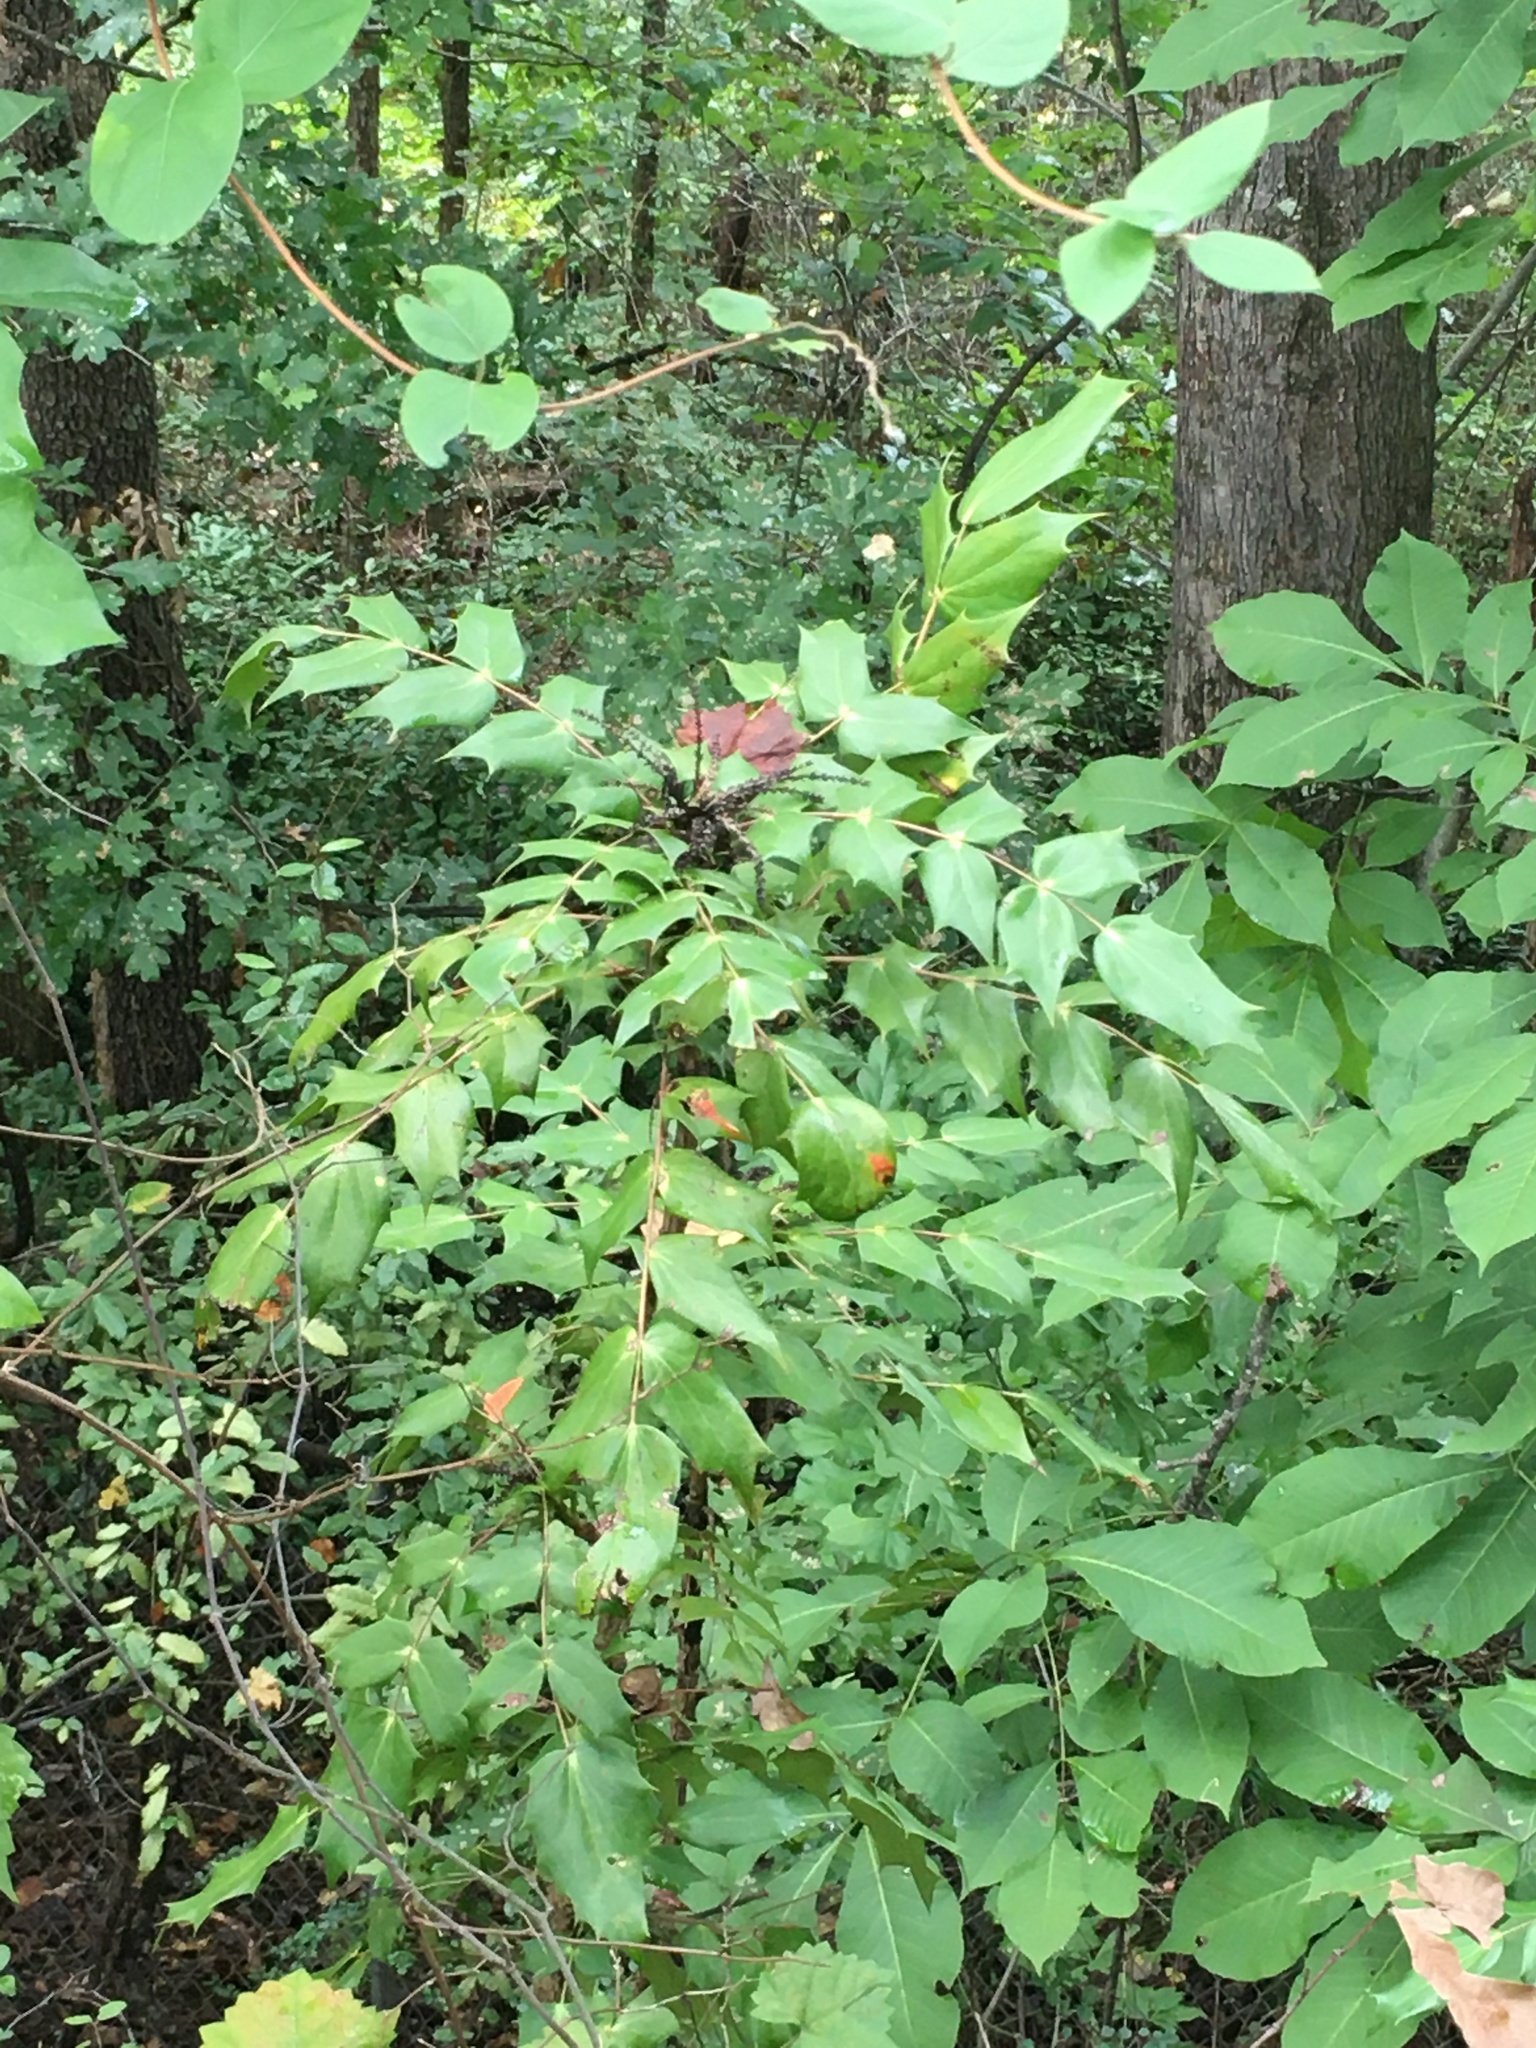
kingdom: Plantae
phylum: Tracheophyta
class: Magnoliopsida
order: Ranunculales
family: Berberidaceae
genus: Mahonia
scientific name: Mahonia bealei
